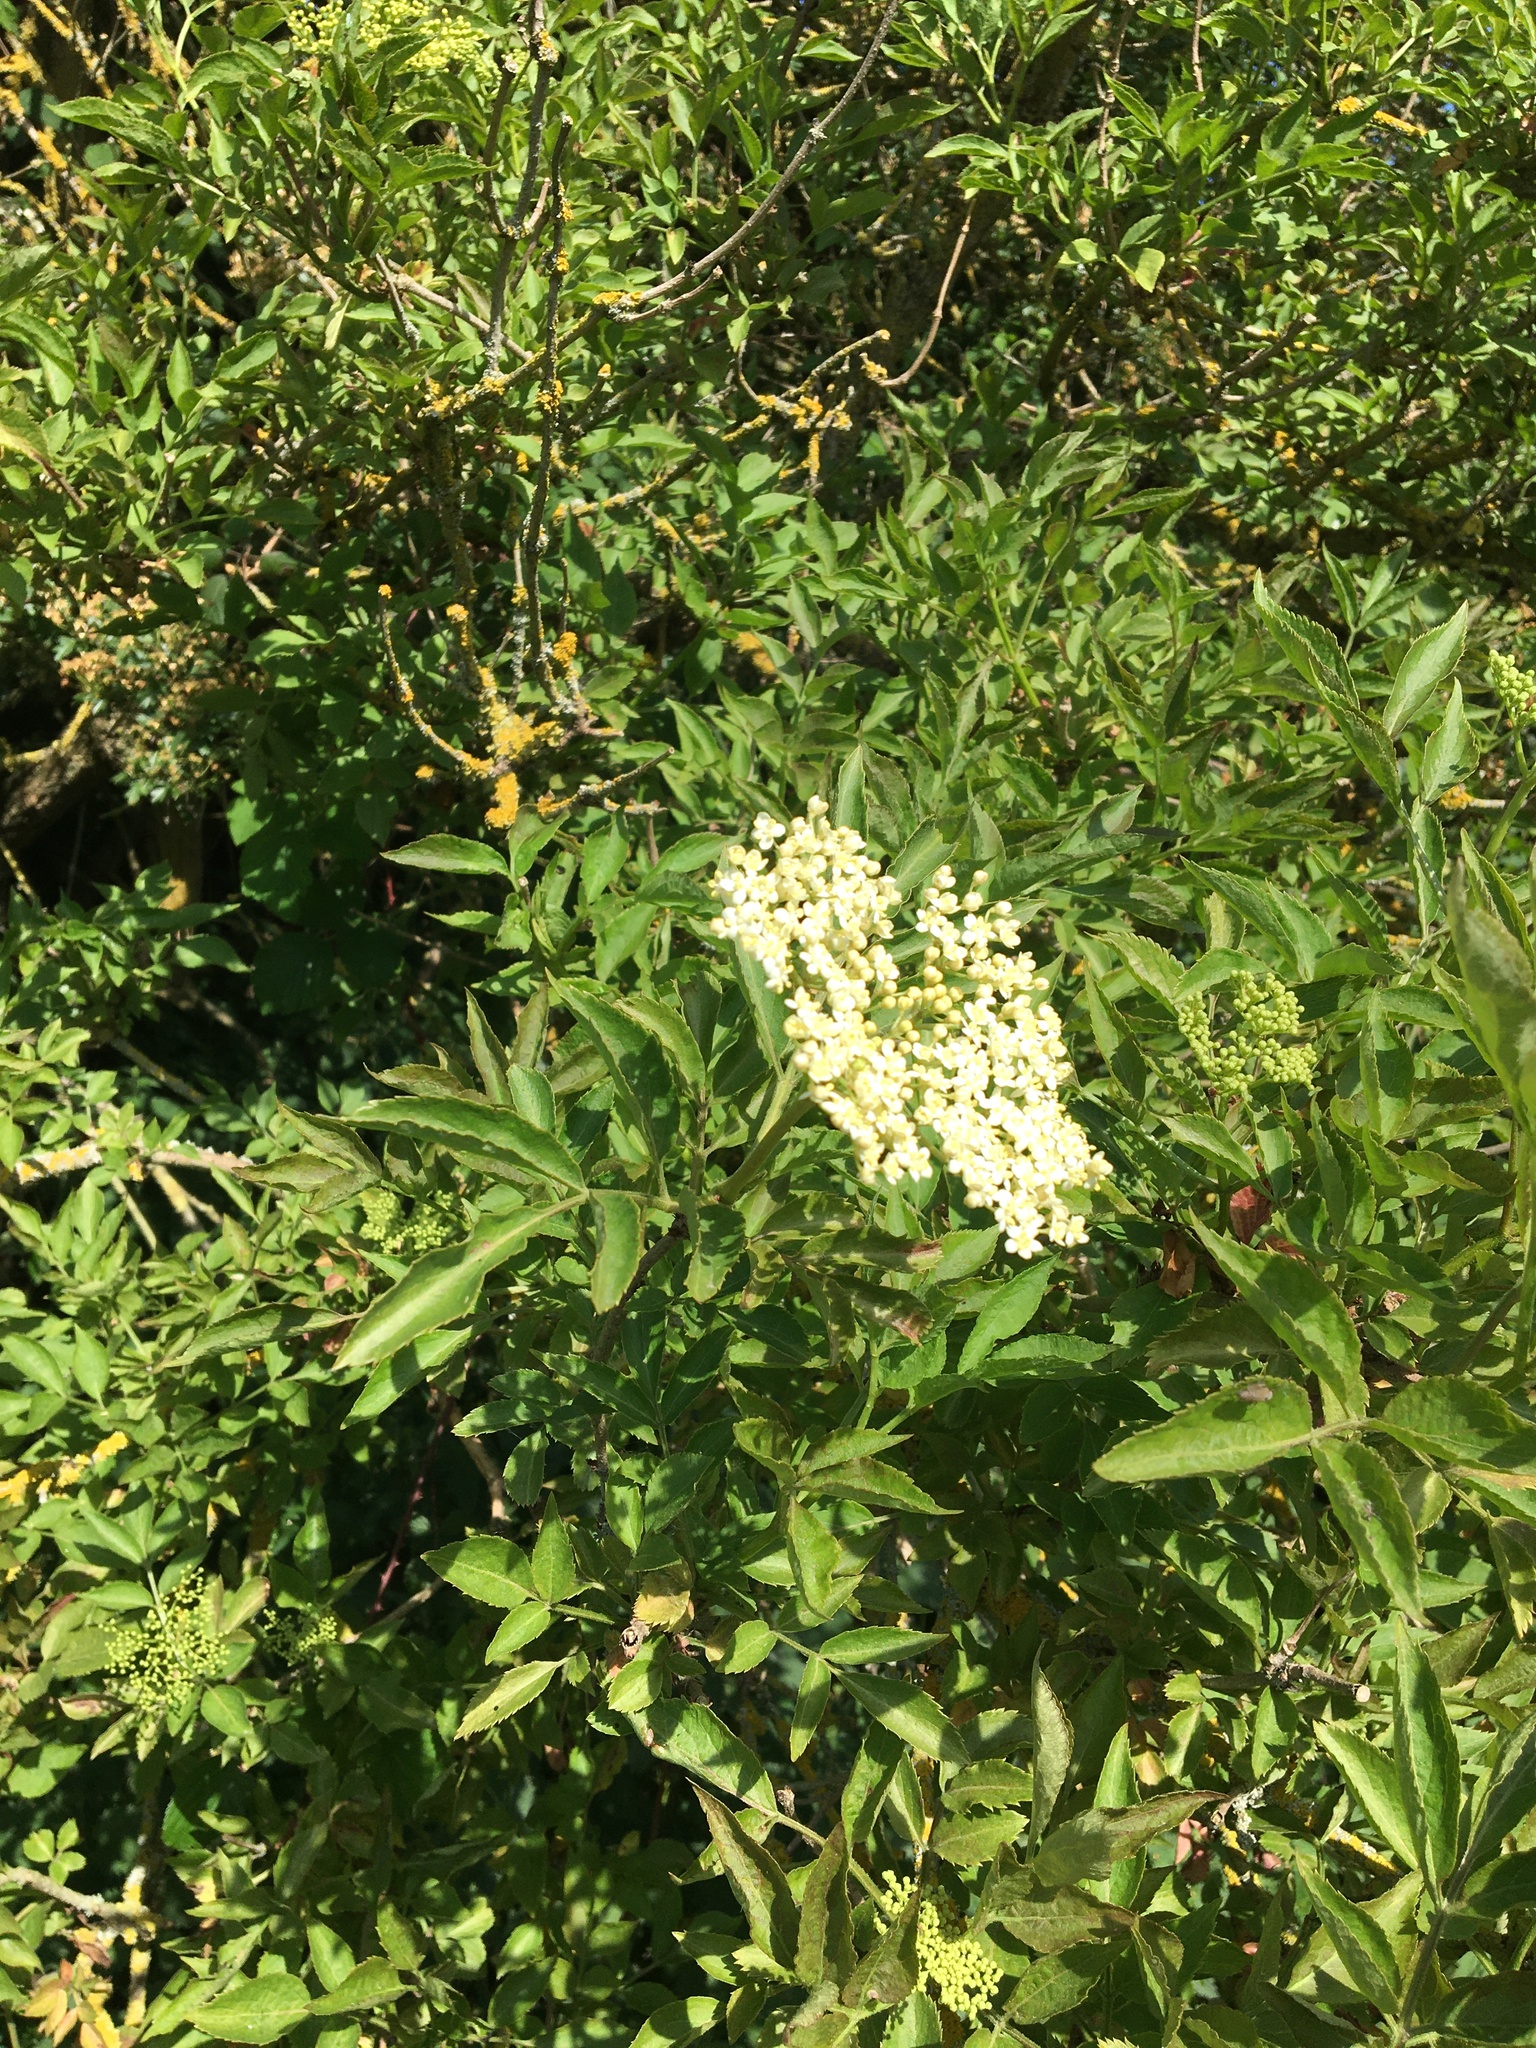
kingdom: Plantae
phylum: Tracheophyta
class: Magnoliopsida
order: Dipsacales
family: Viburnaceae
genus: Sambucus
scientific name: Sambucus nigra
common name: Elder
